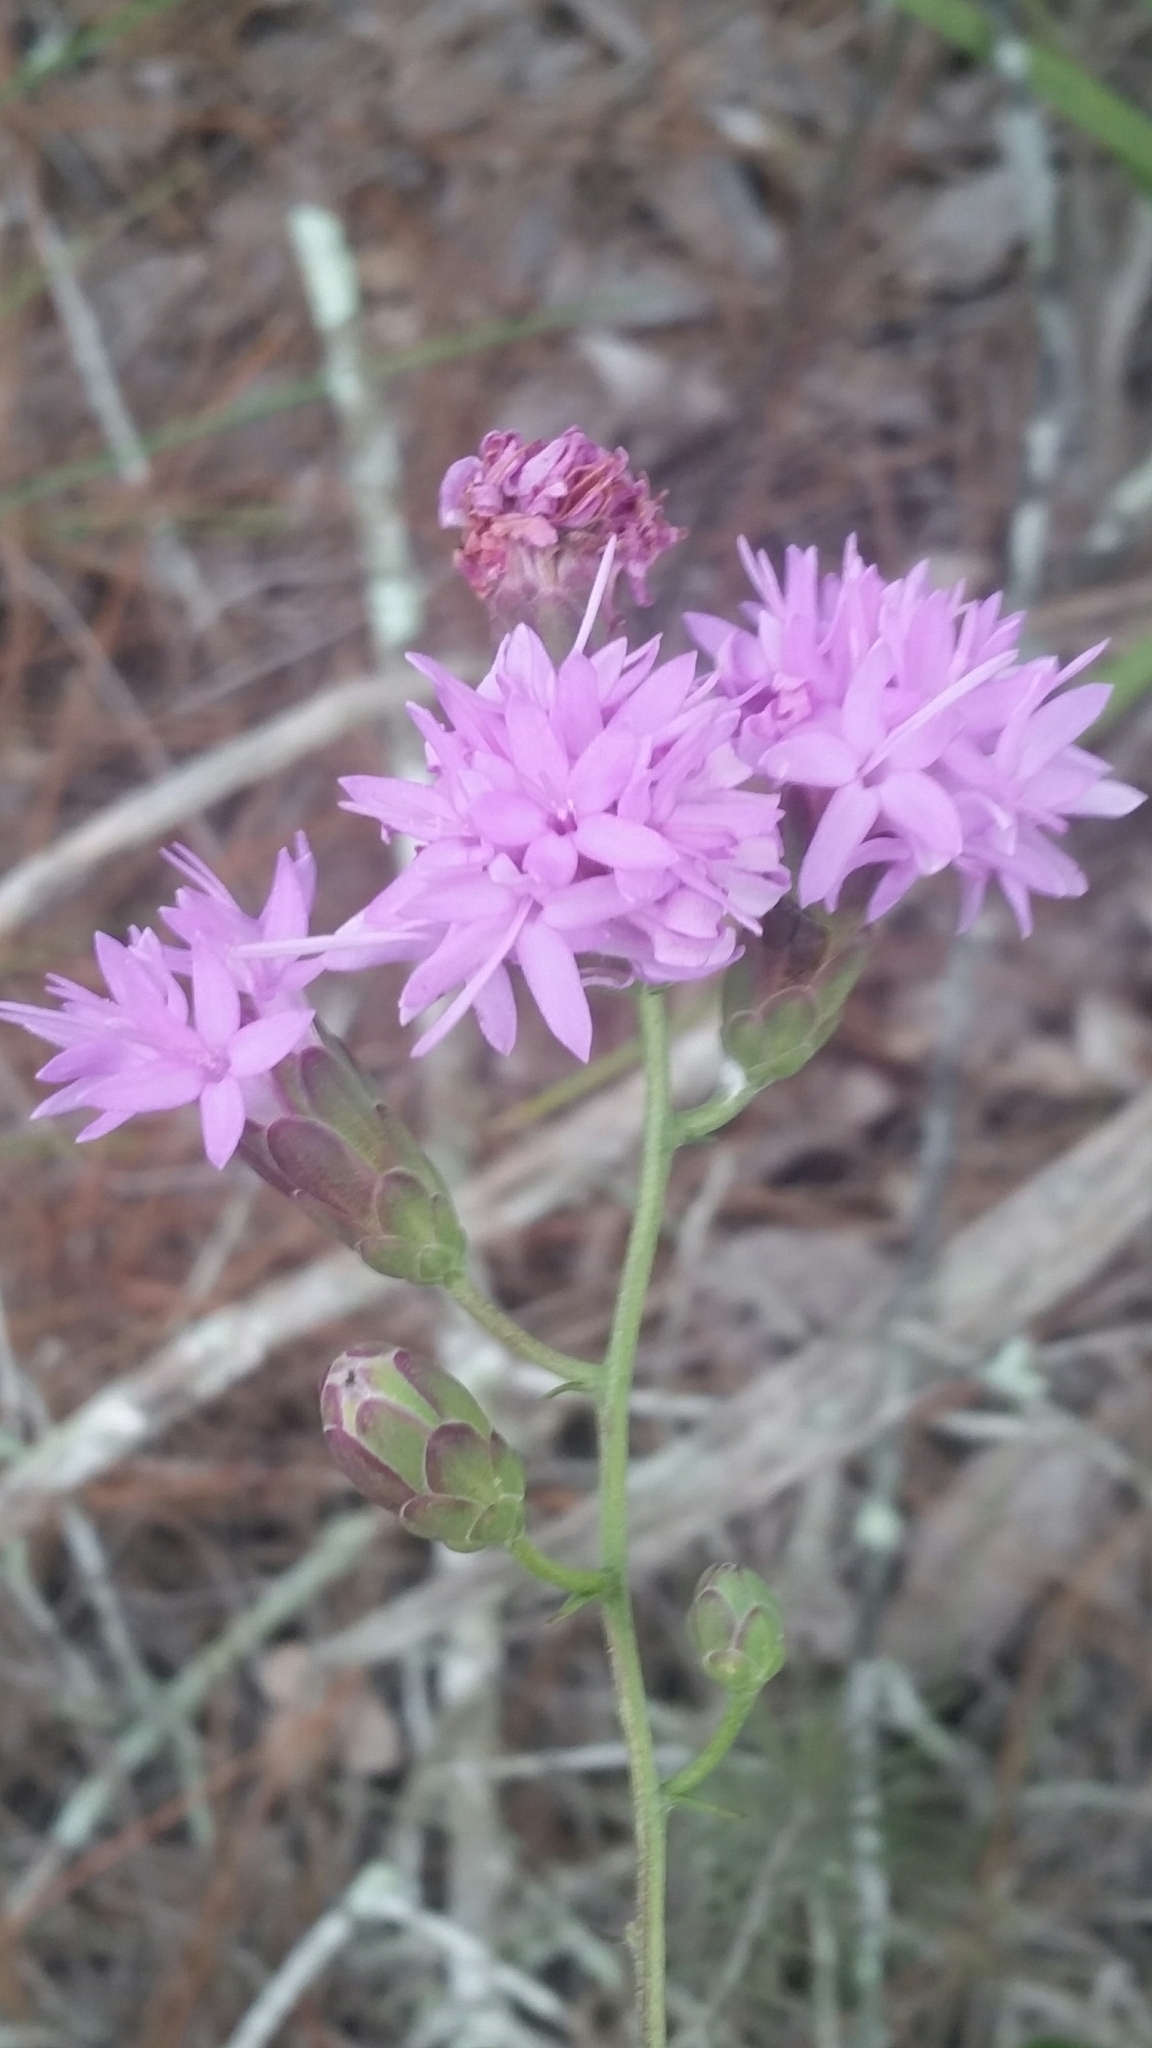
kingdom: Plantae
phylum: Tracheophyta
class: Magnoliopsida
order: Asterales
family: Asteraceae
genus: Liatris
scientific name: Liatris ohlingerae
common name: Scrub blazingstar
